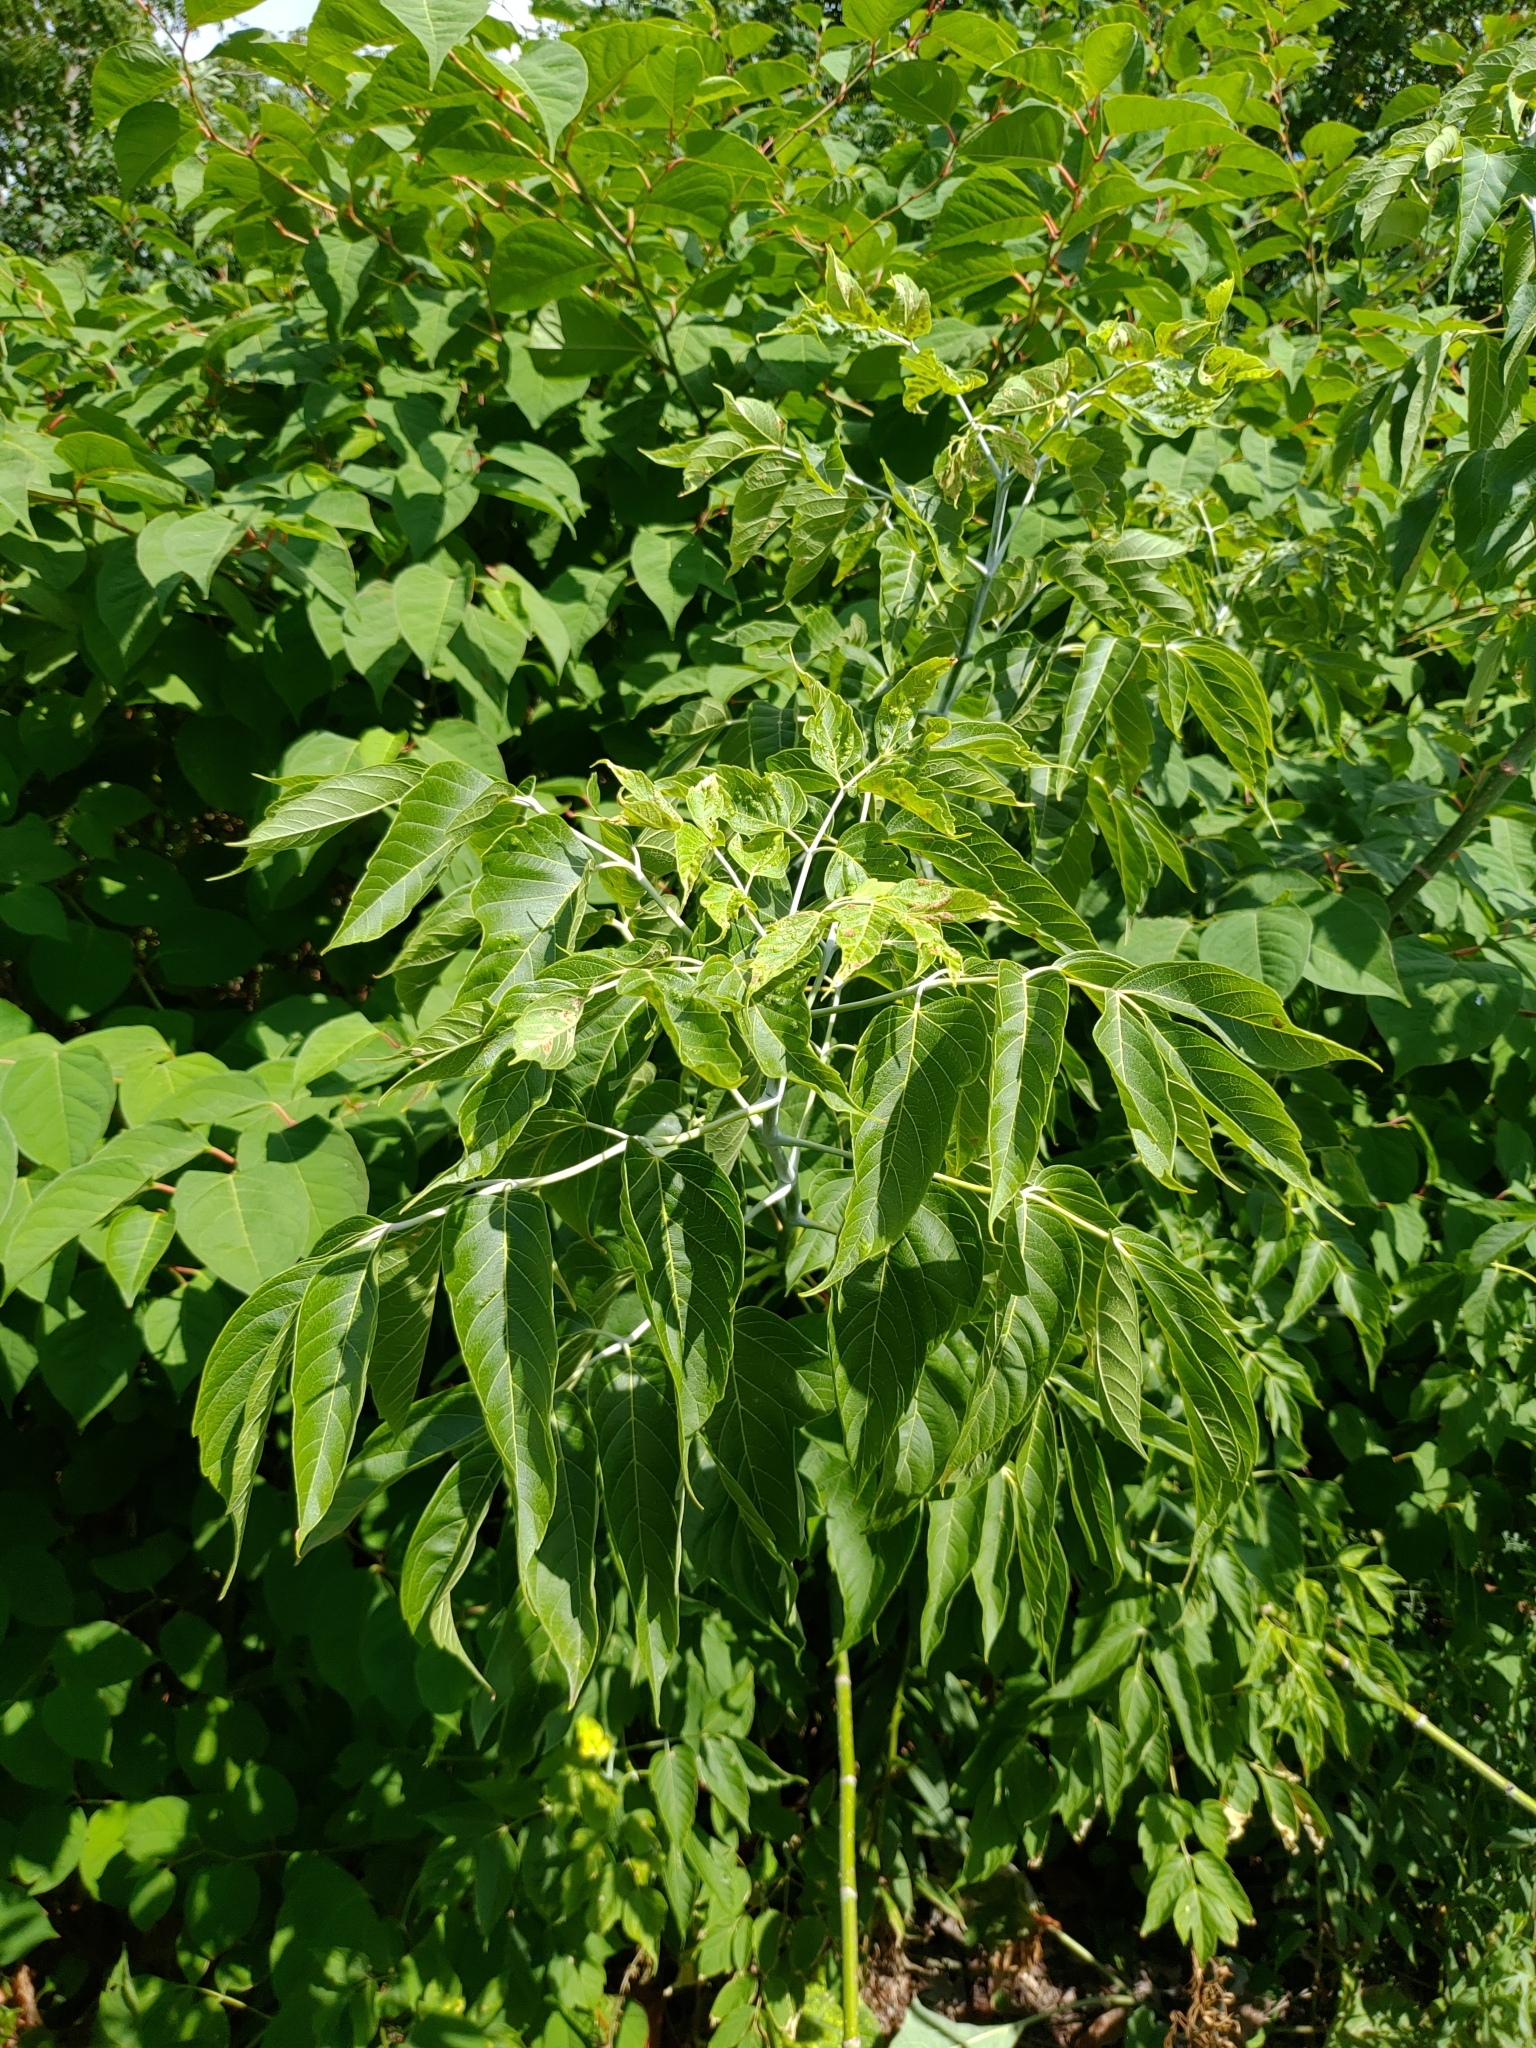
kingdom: Plantae
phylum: Tracheophyta
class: Magnoliopsida
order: Sapindales
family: Sapindaceae
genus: Acer
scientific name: Acer negundo
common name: Ashleaf maple
